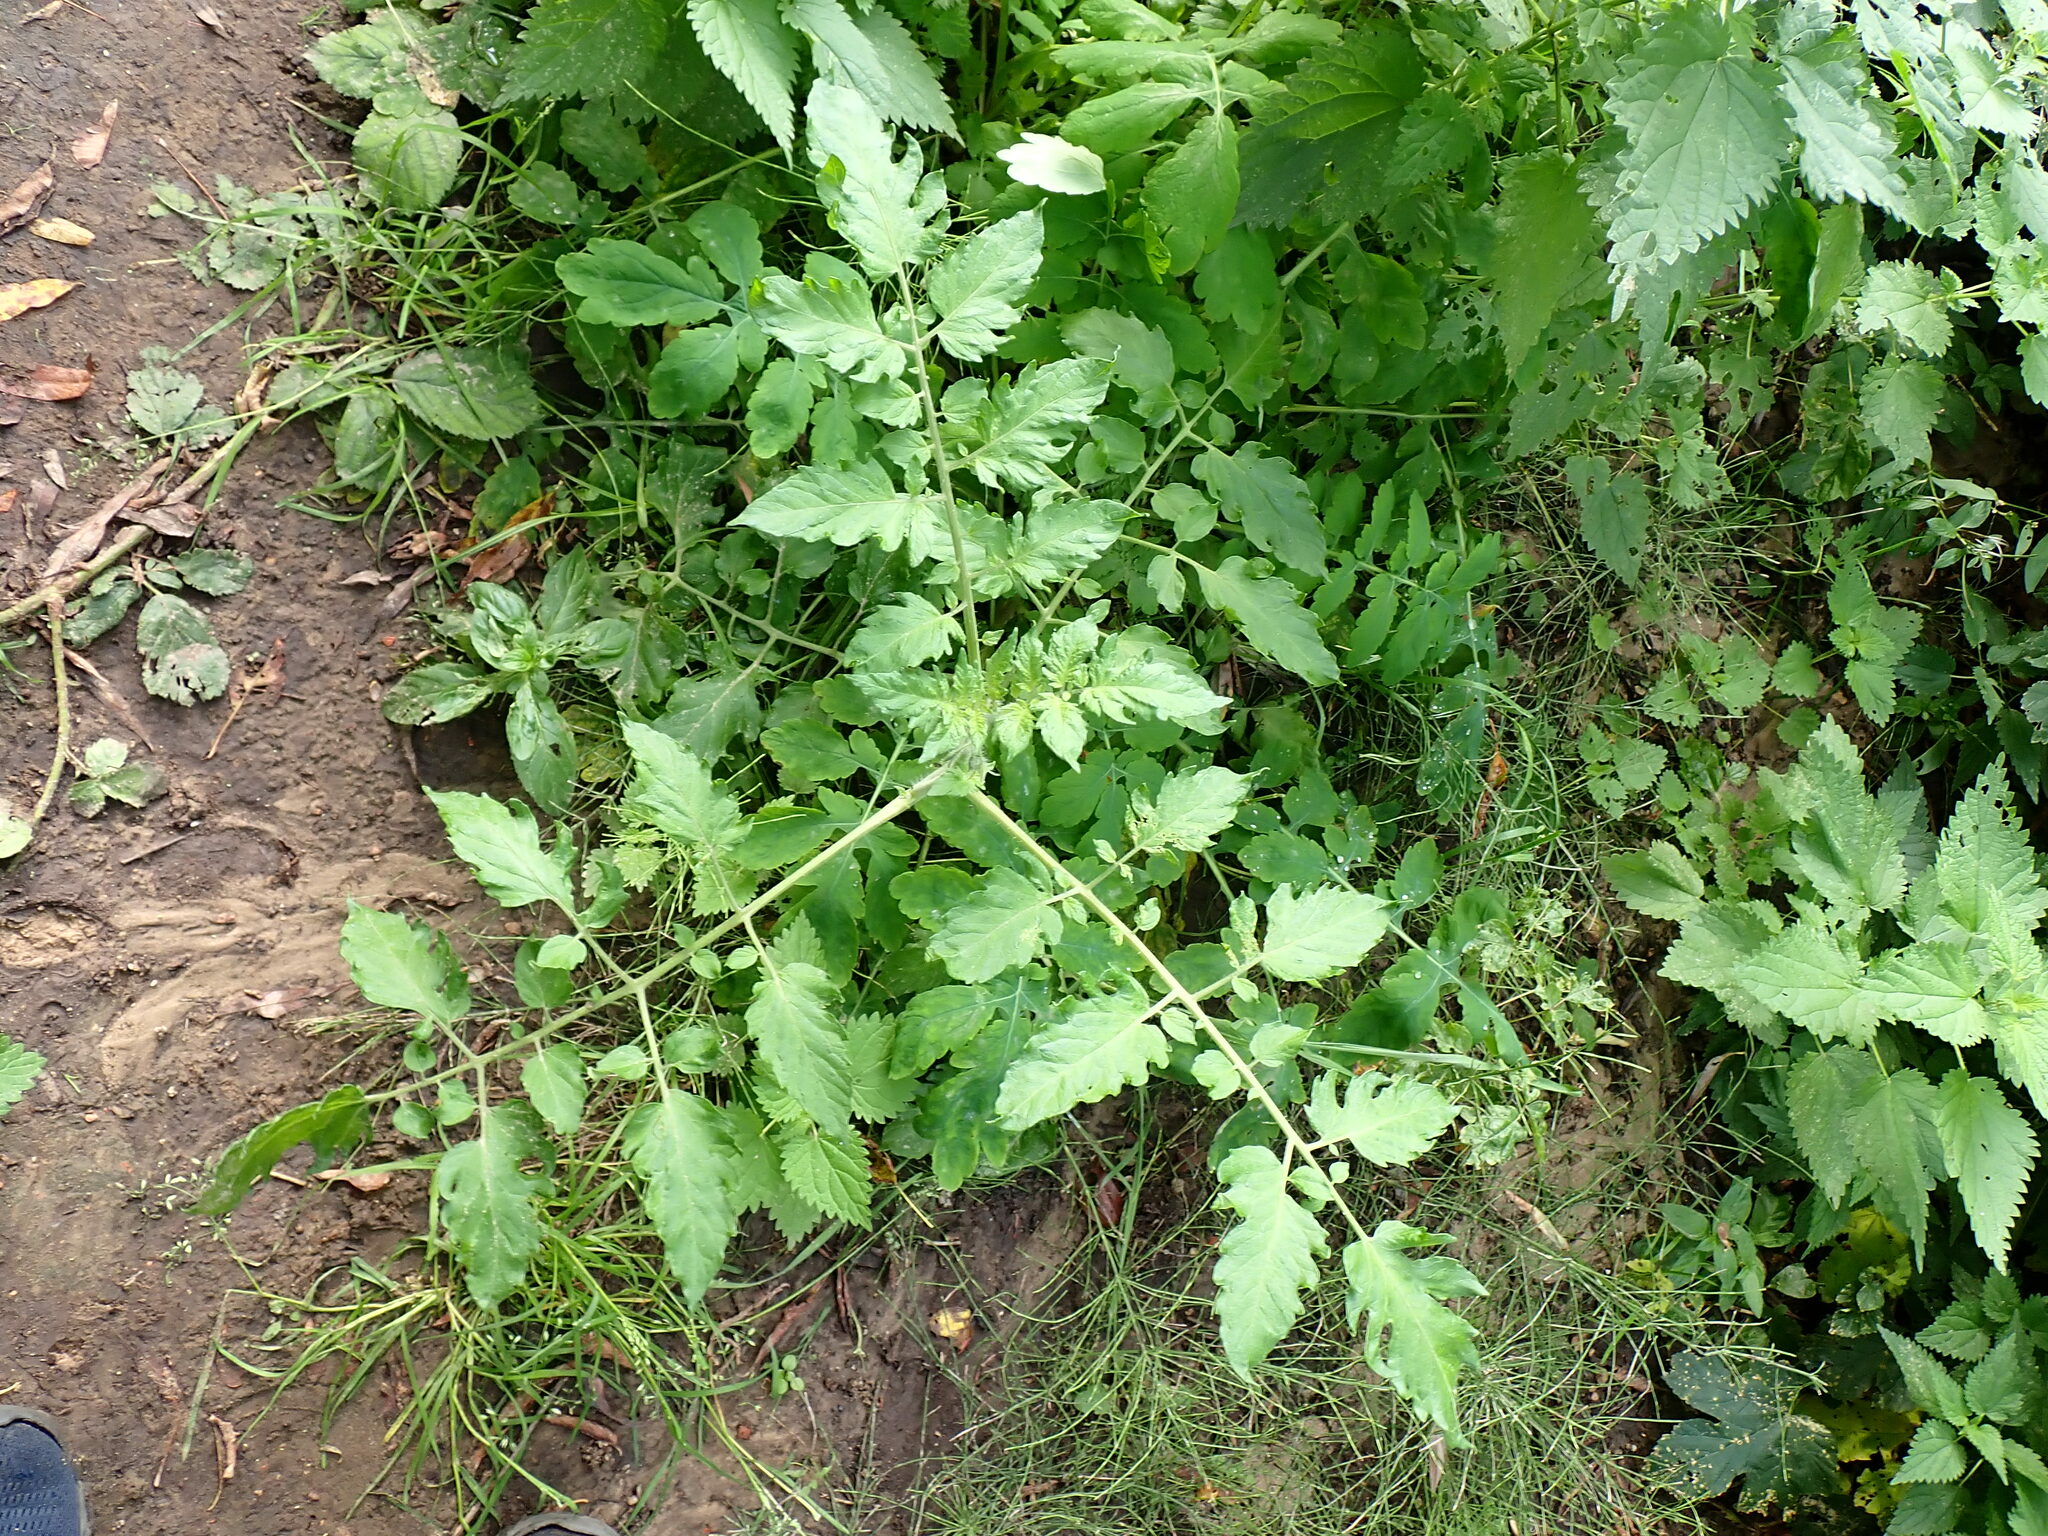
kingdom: Plantae
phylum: Tracheophyta
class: Magnoliopsida
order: Solanales
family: Solanaceae
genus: Solanum
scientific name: Solanum lycopersicum
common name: Garden tomato
